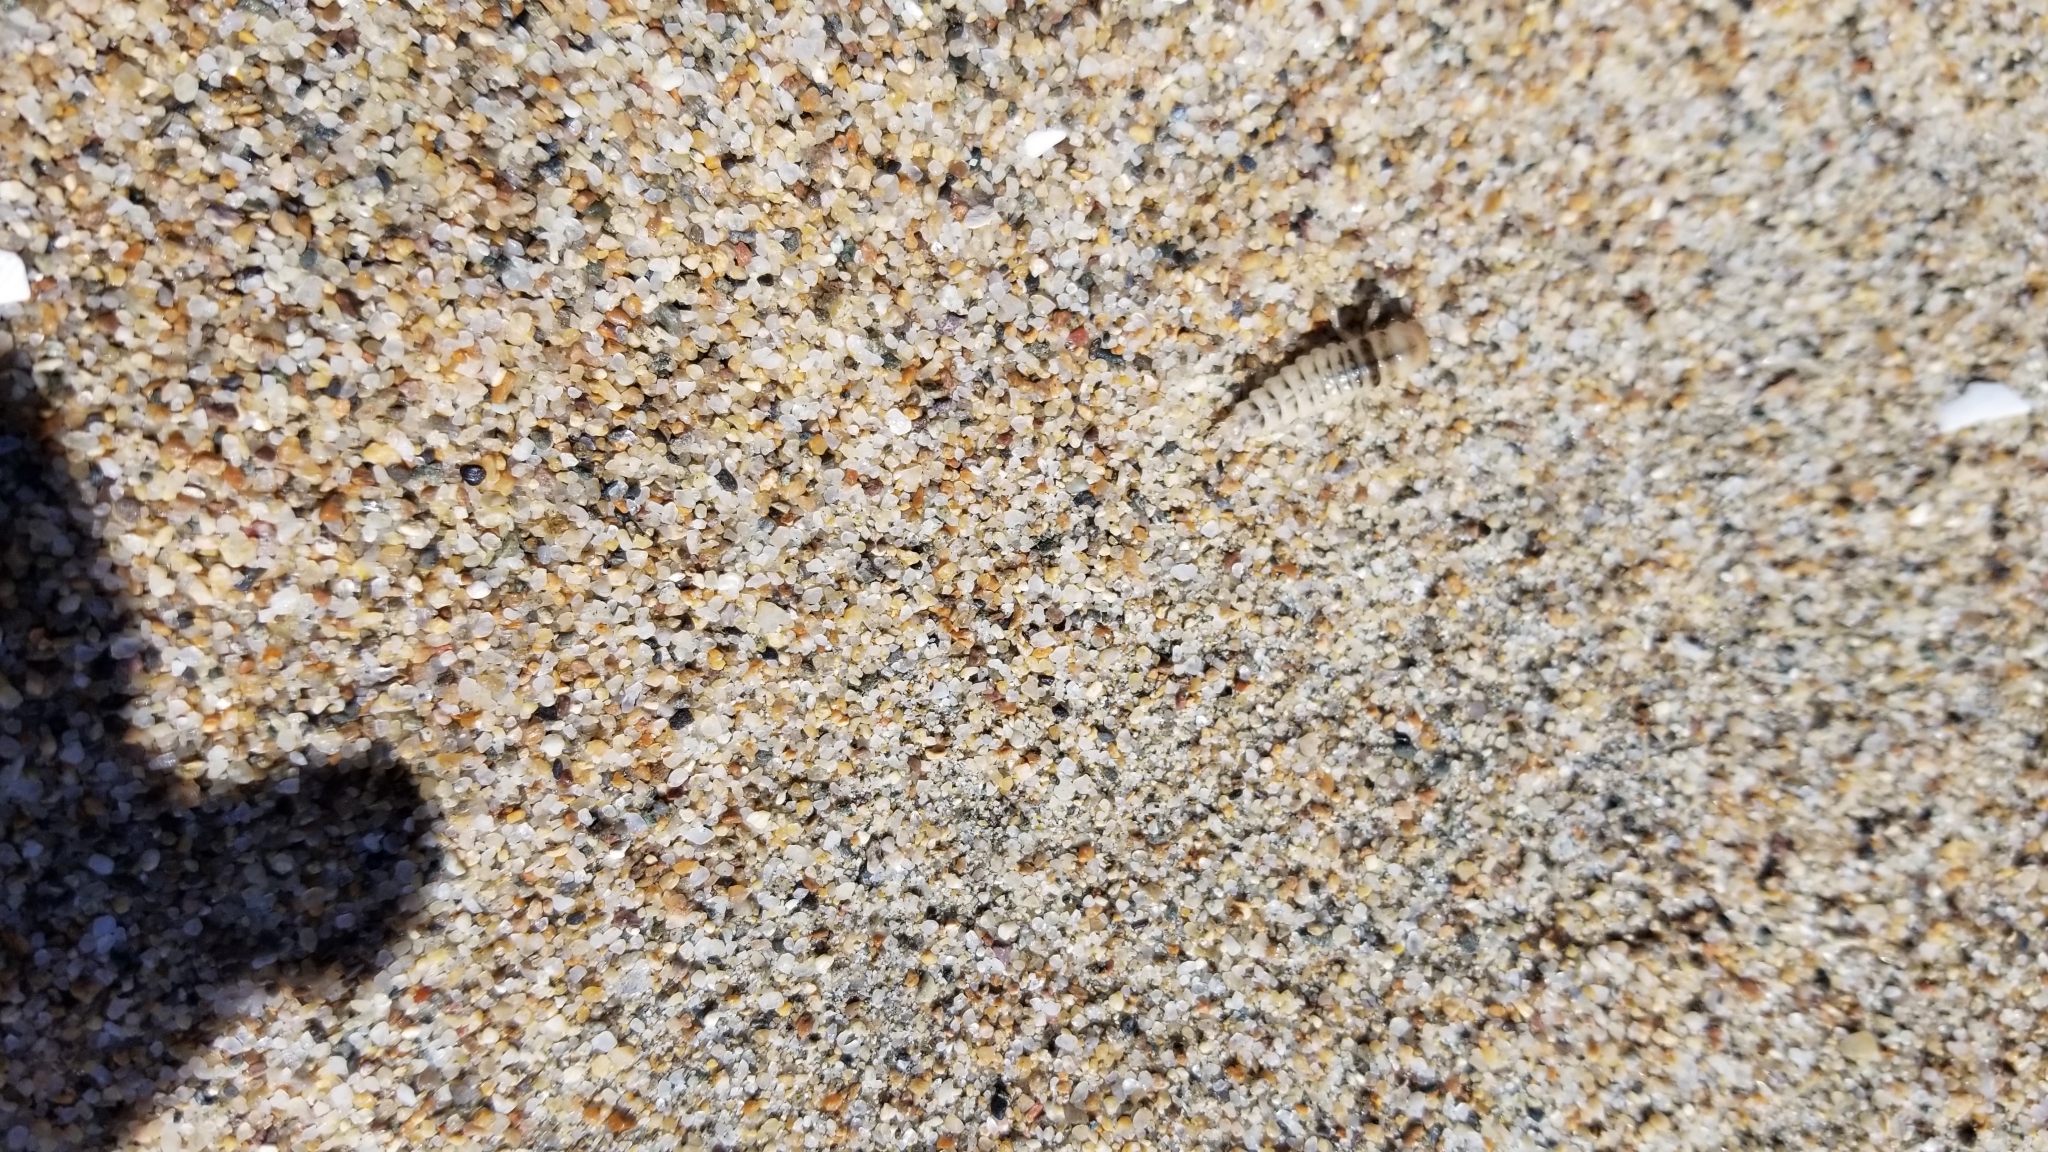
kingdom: Animalia
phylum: Arthropoda
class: Insecta
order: Coleoptera
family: Staphylinidae
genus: Thinopinus
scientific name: Thinopinus pictus
